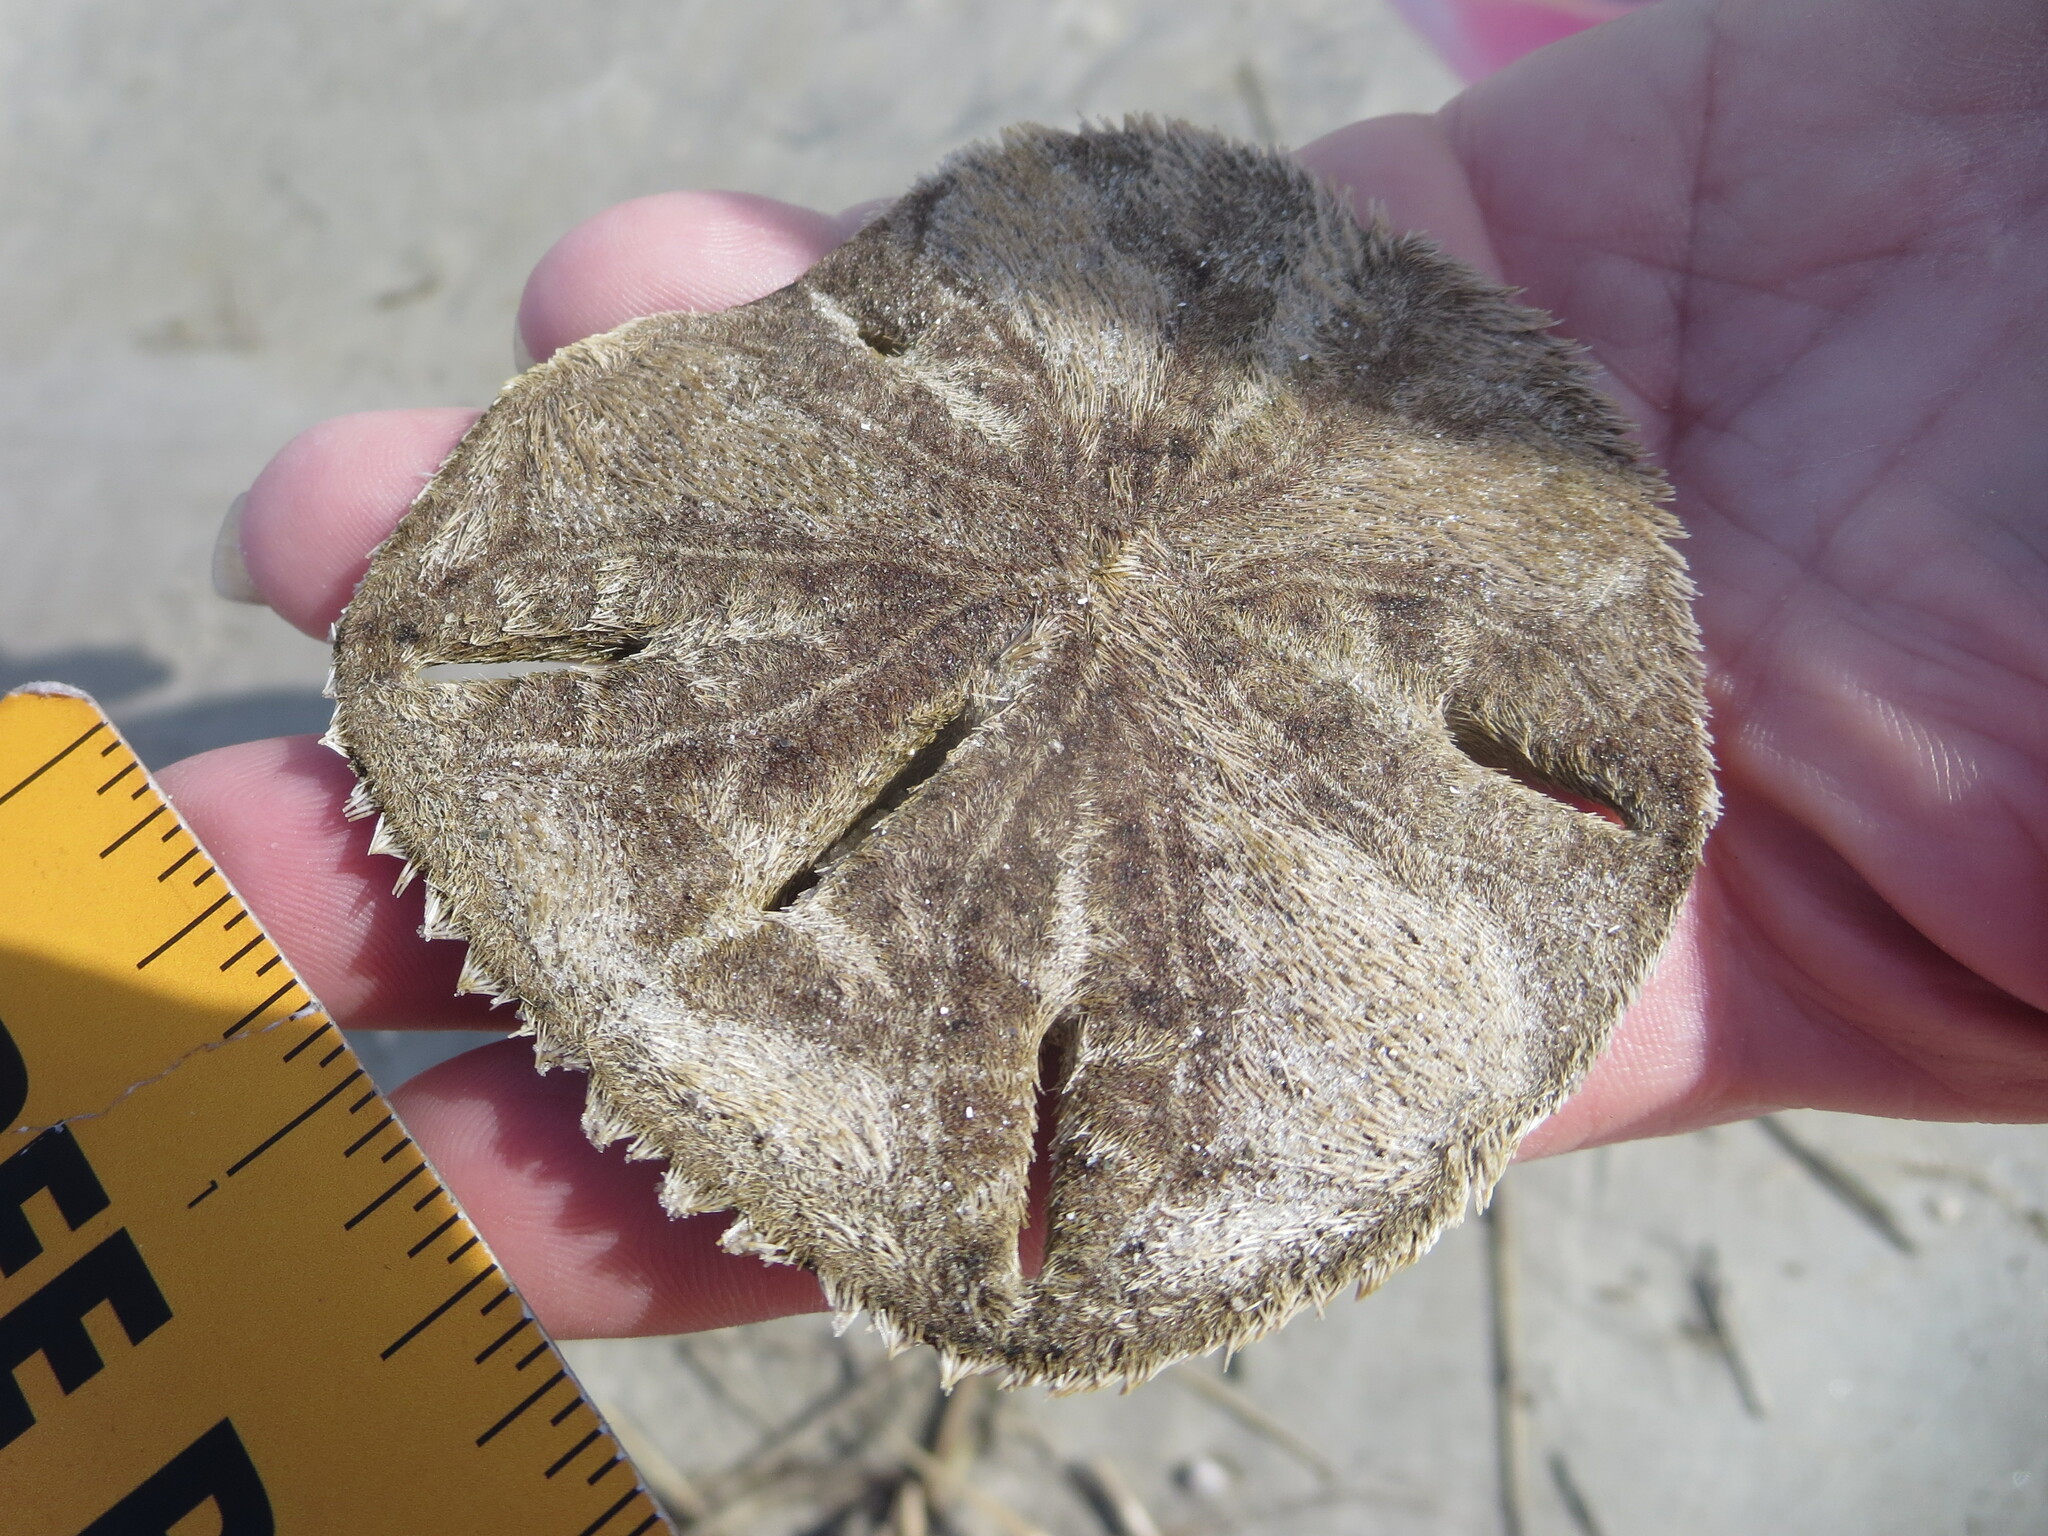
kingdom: Animalia
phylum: Echinodermata
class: Echinoidea
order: Echinolampadacea
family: Mellitidae
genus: Mellita
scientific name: Mellita isometra
